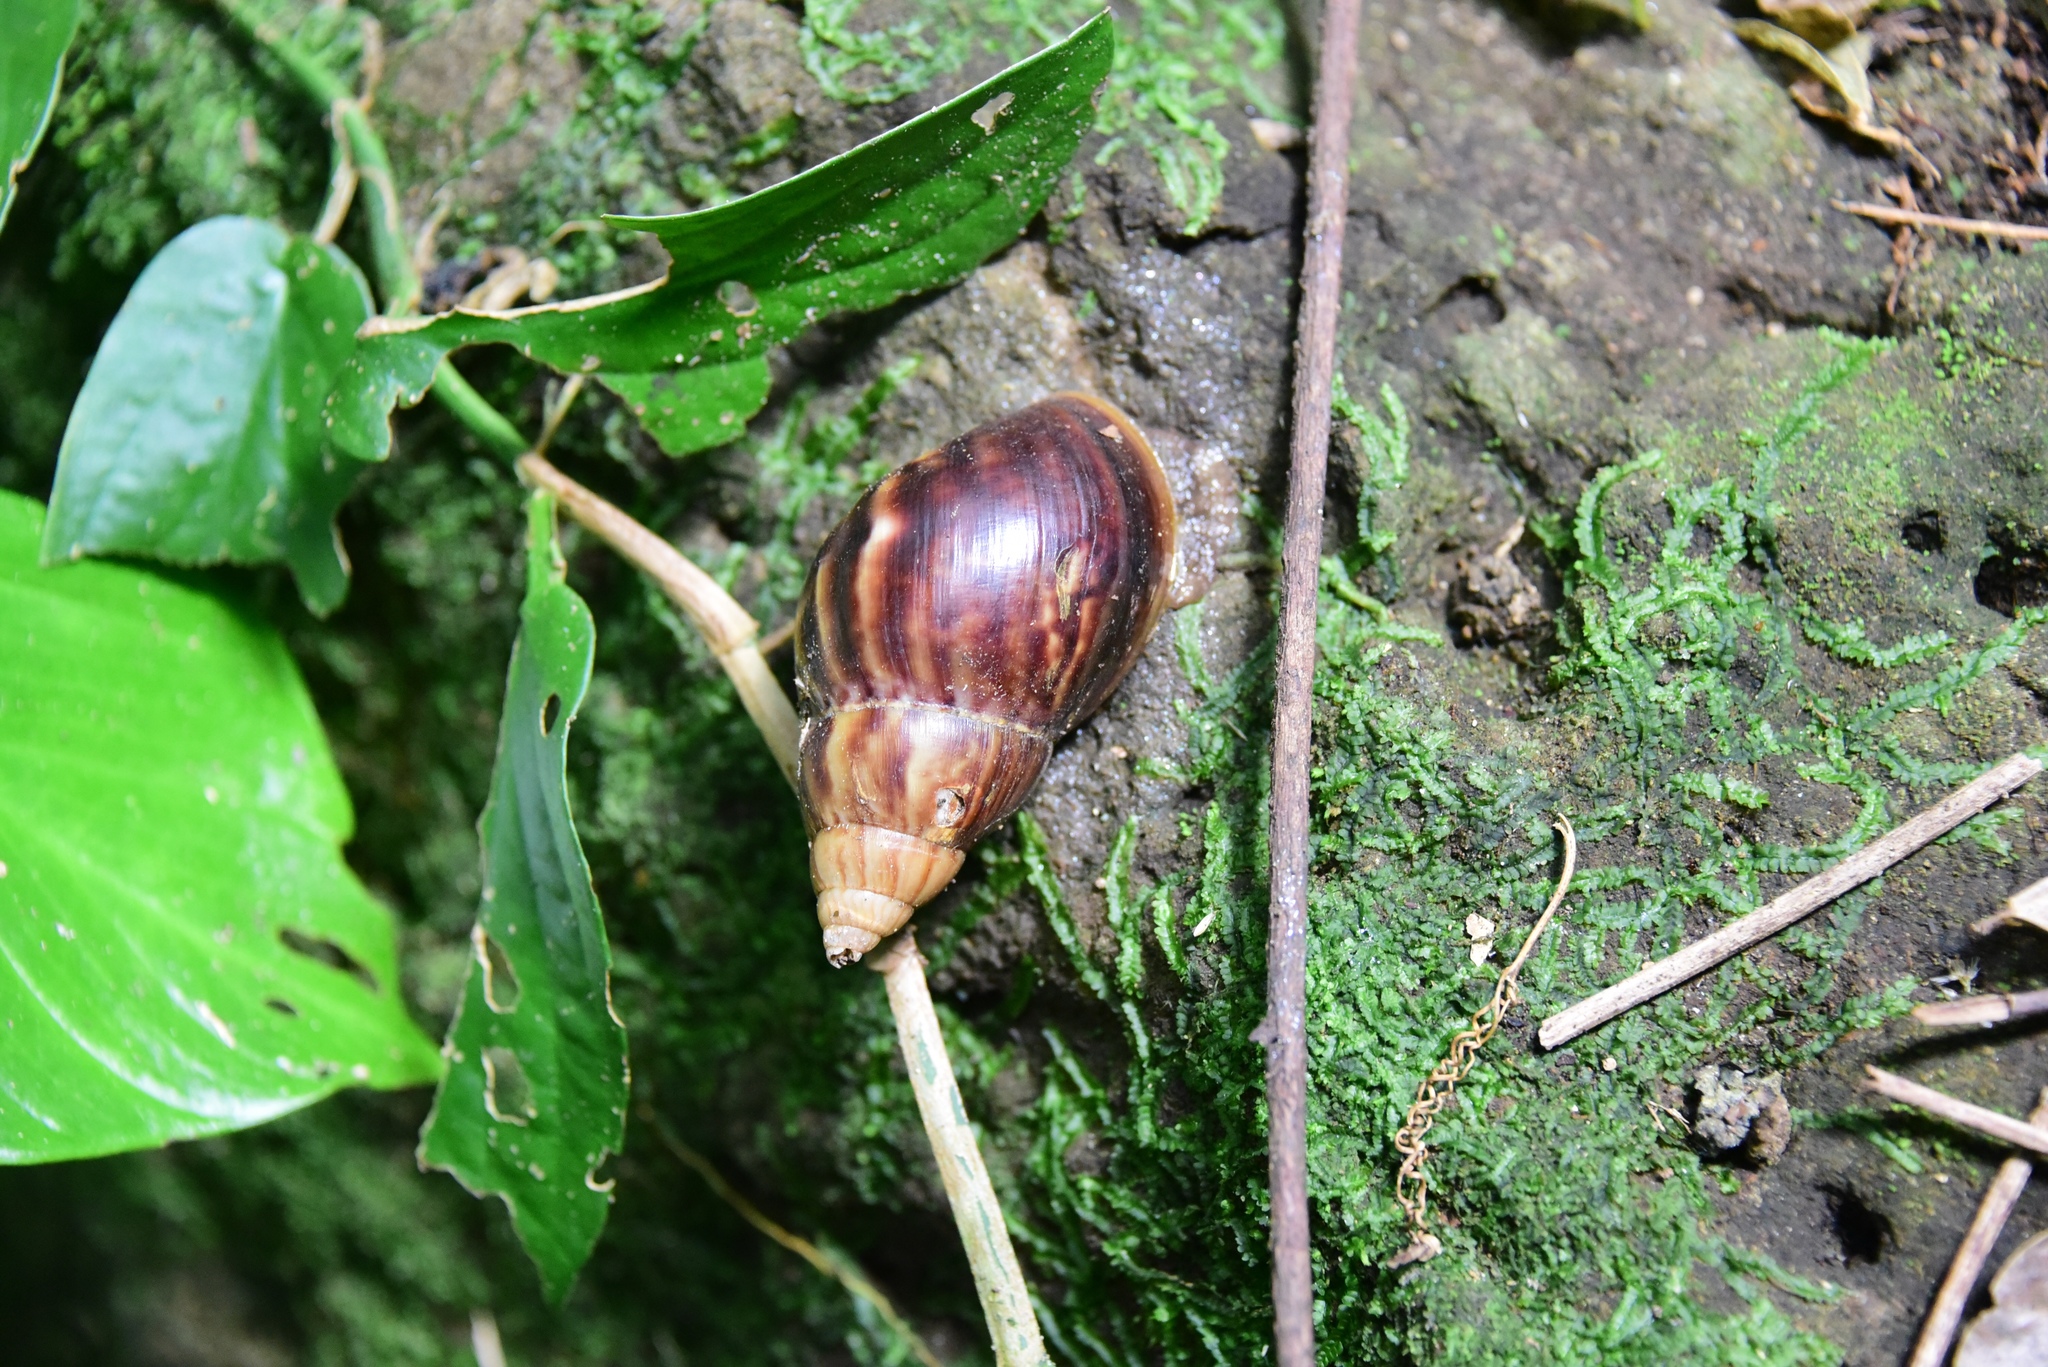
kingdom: Animalia
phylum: Mollusca
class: Gastropoda
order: Stylommatophora
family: Achatinidae
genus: Lissachatina
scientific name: Lissachatina fulica
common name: Giant african snail
